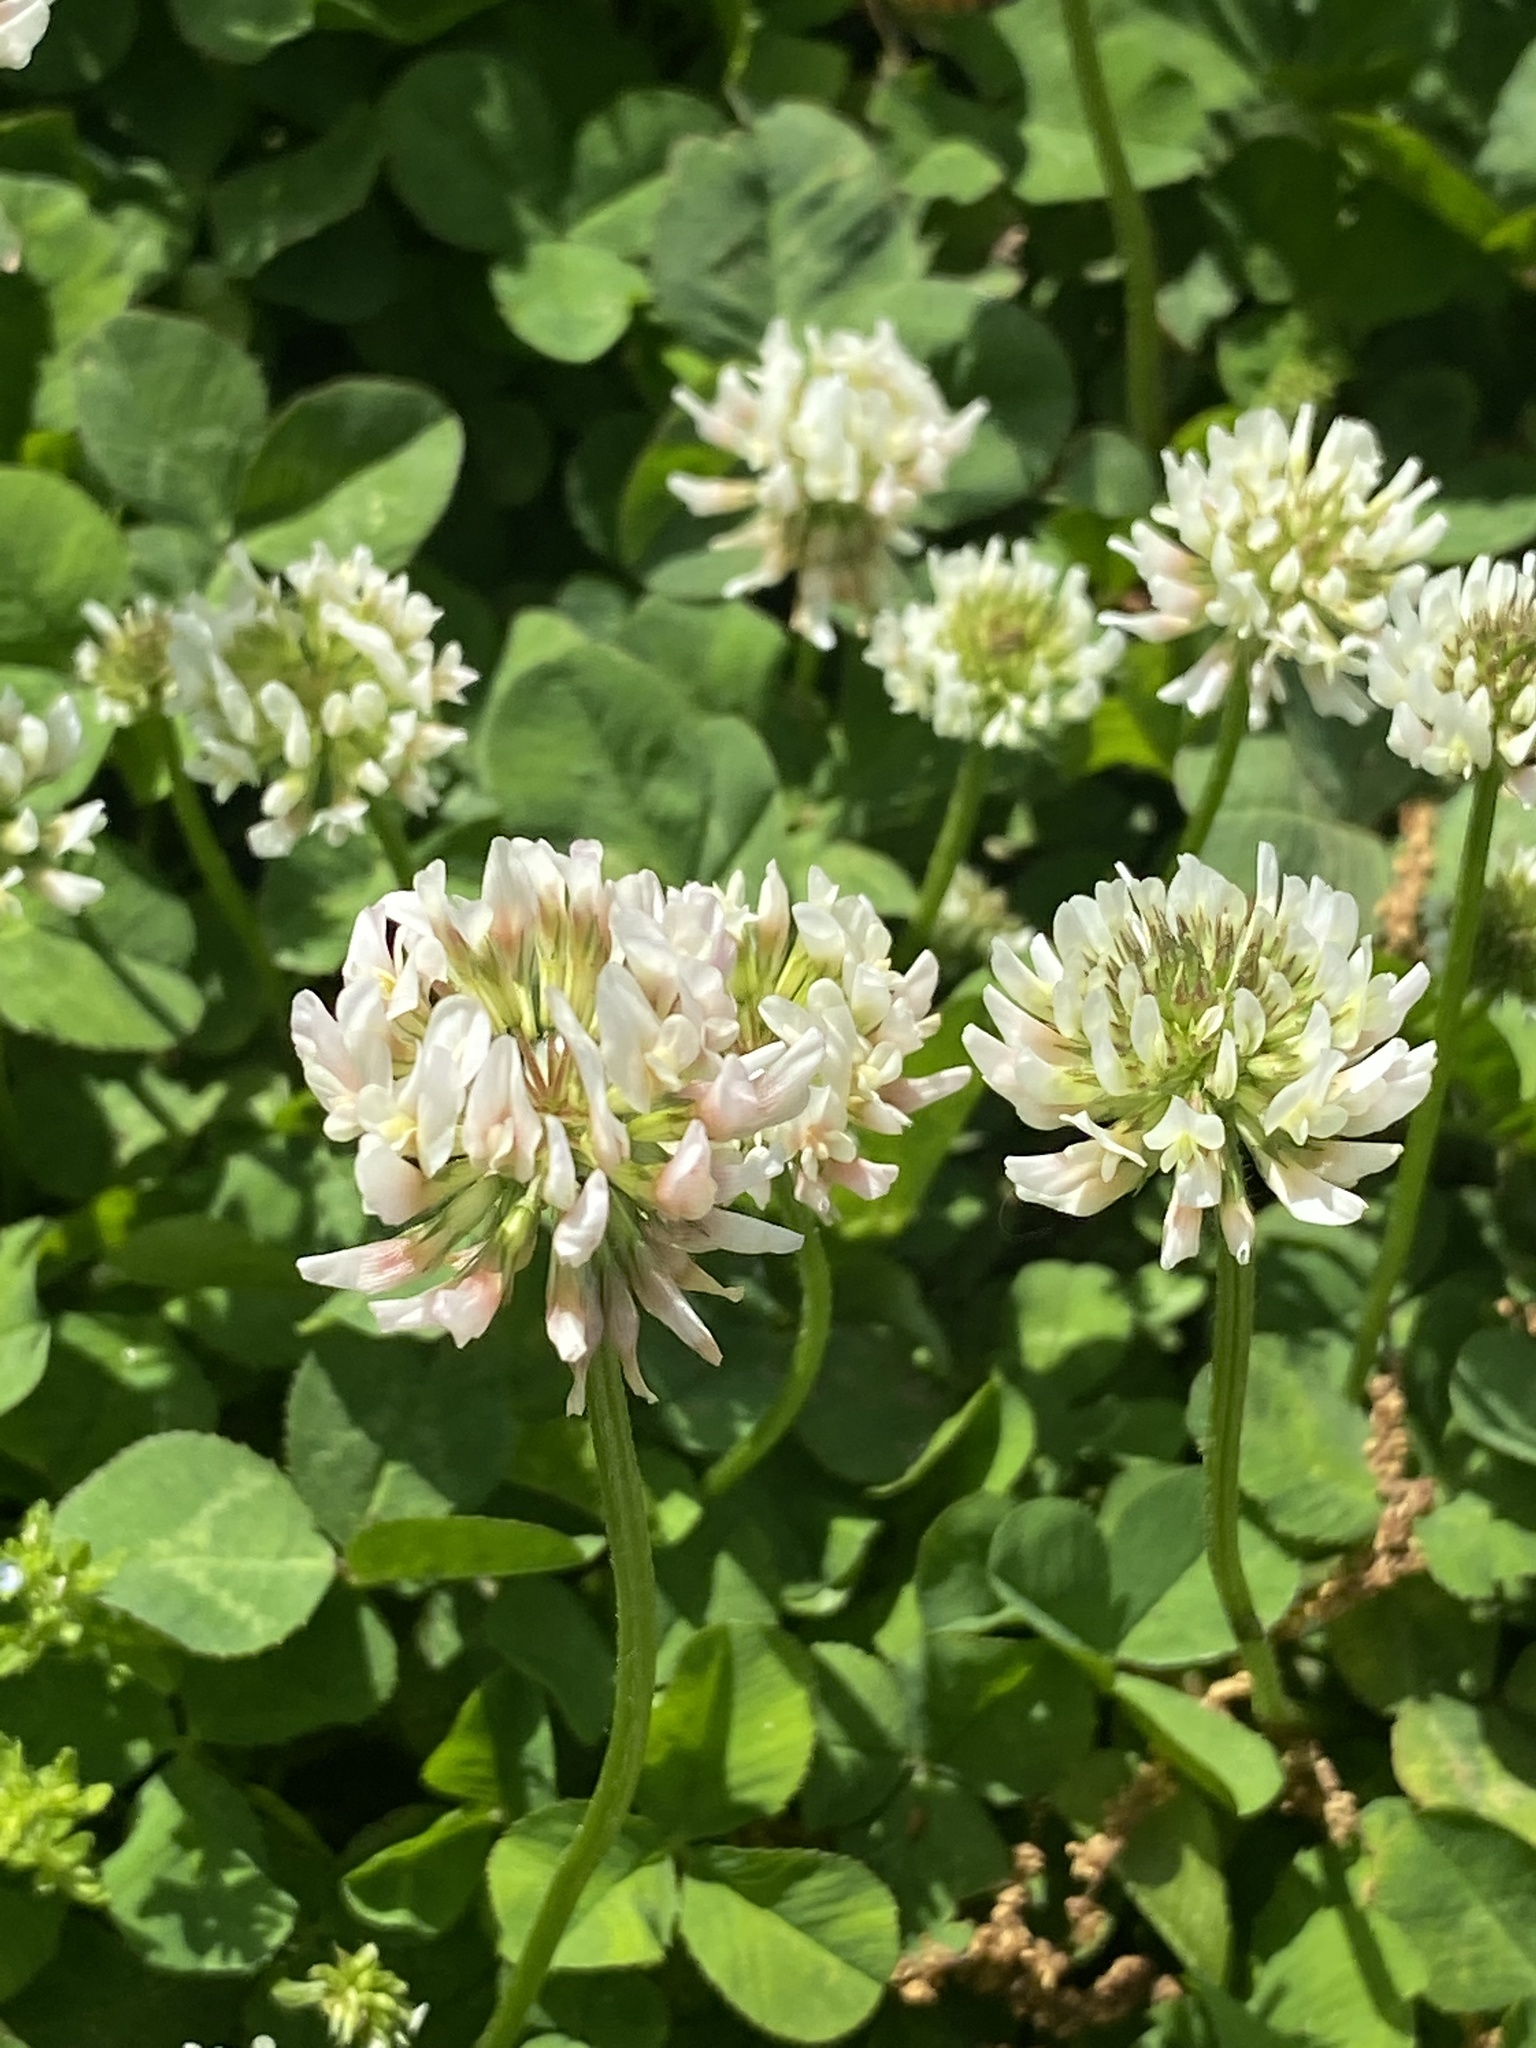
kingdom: Plantae
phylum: Tracheophyta
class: Magnoliopsida
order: Fabales
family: Fabaceae
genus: Trifolium
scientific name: Trifolium repens
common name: White clover
